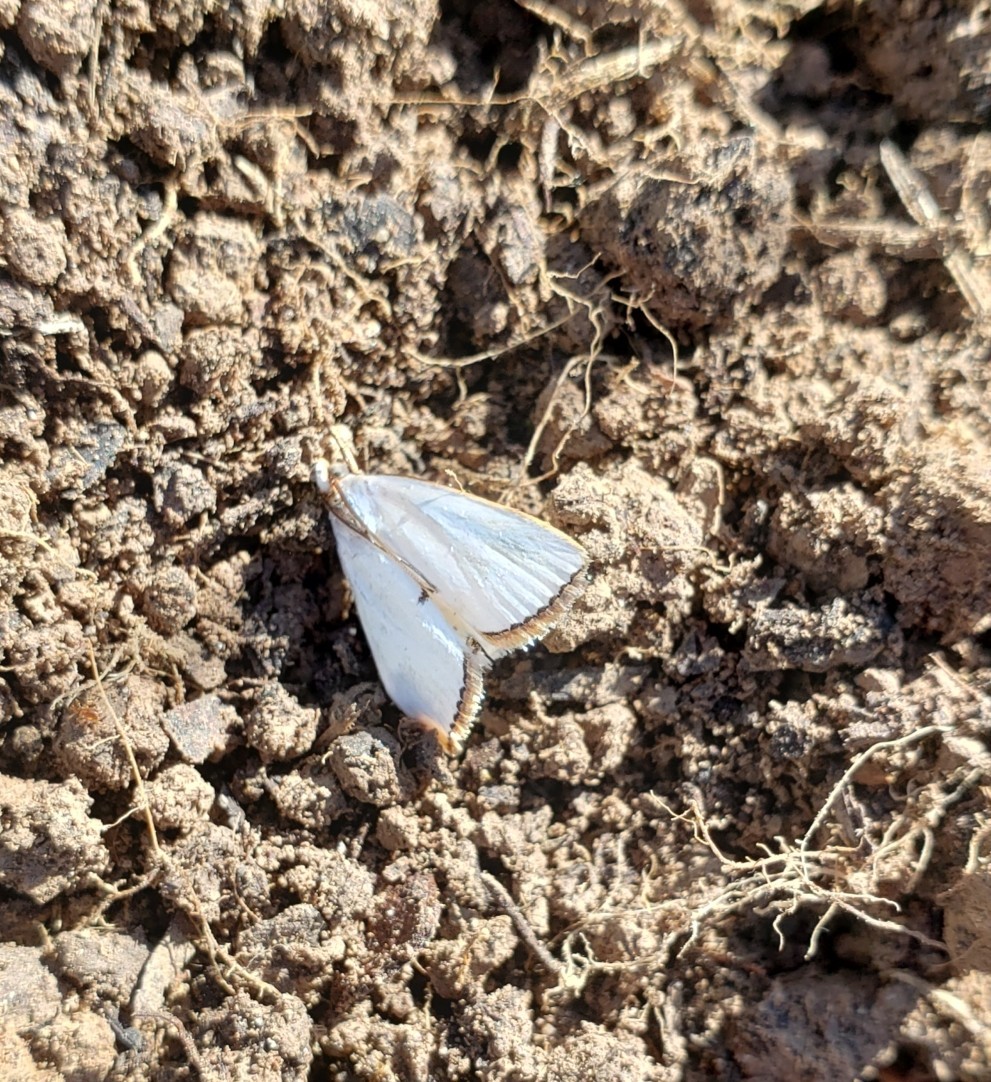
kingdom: Animalia
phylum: Arthropoda
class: Insecta
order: Lepidoptera
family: Crambidae
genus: Argyria
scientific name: Argyria nivalis
